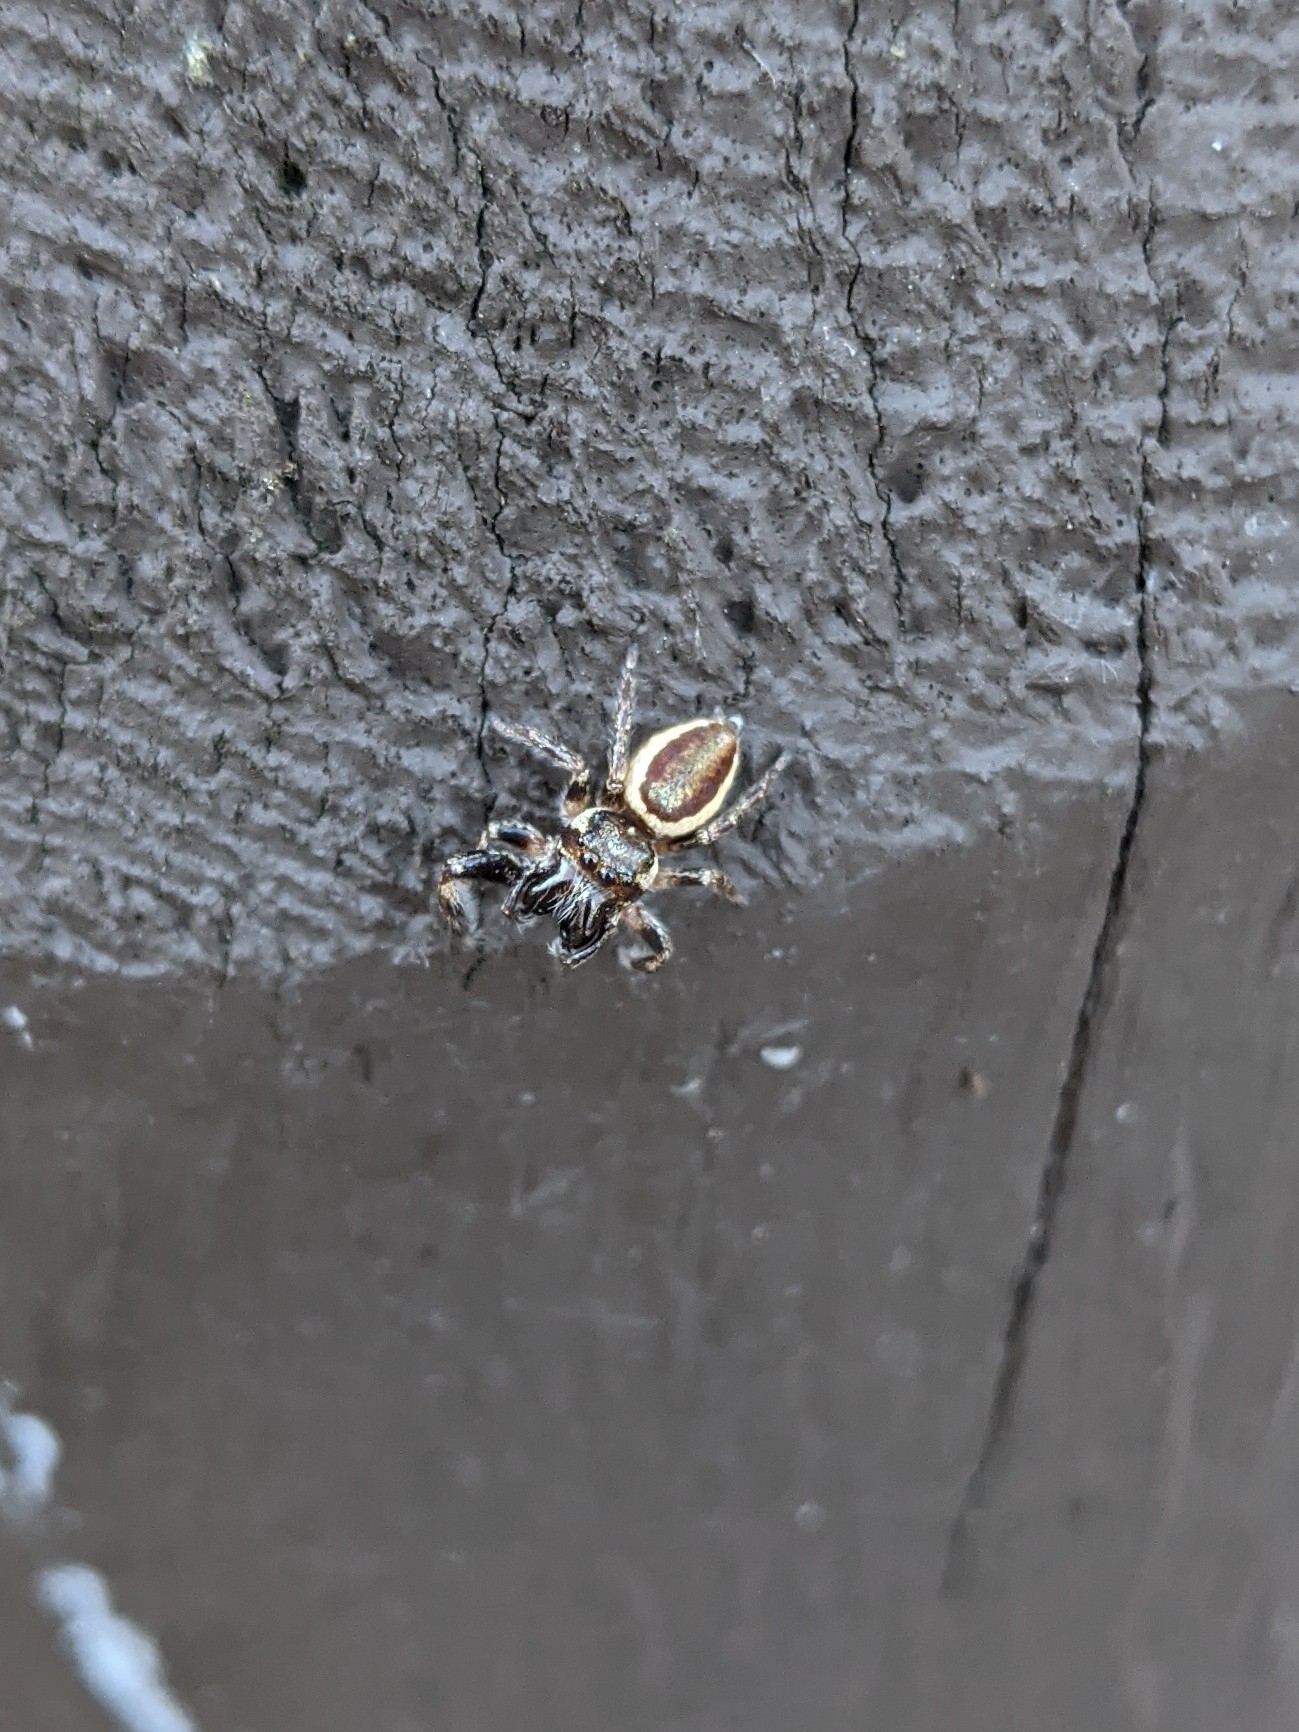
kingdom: Animalia
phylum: Arthropoda
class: Arachnida
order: Araneae
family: Salticidae
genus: Eris
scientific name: Eris militaris
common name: Bronze jumper
